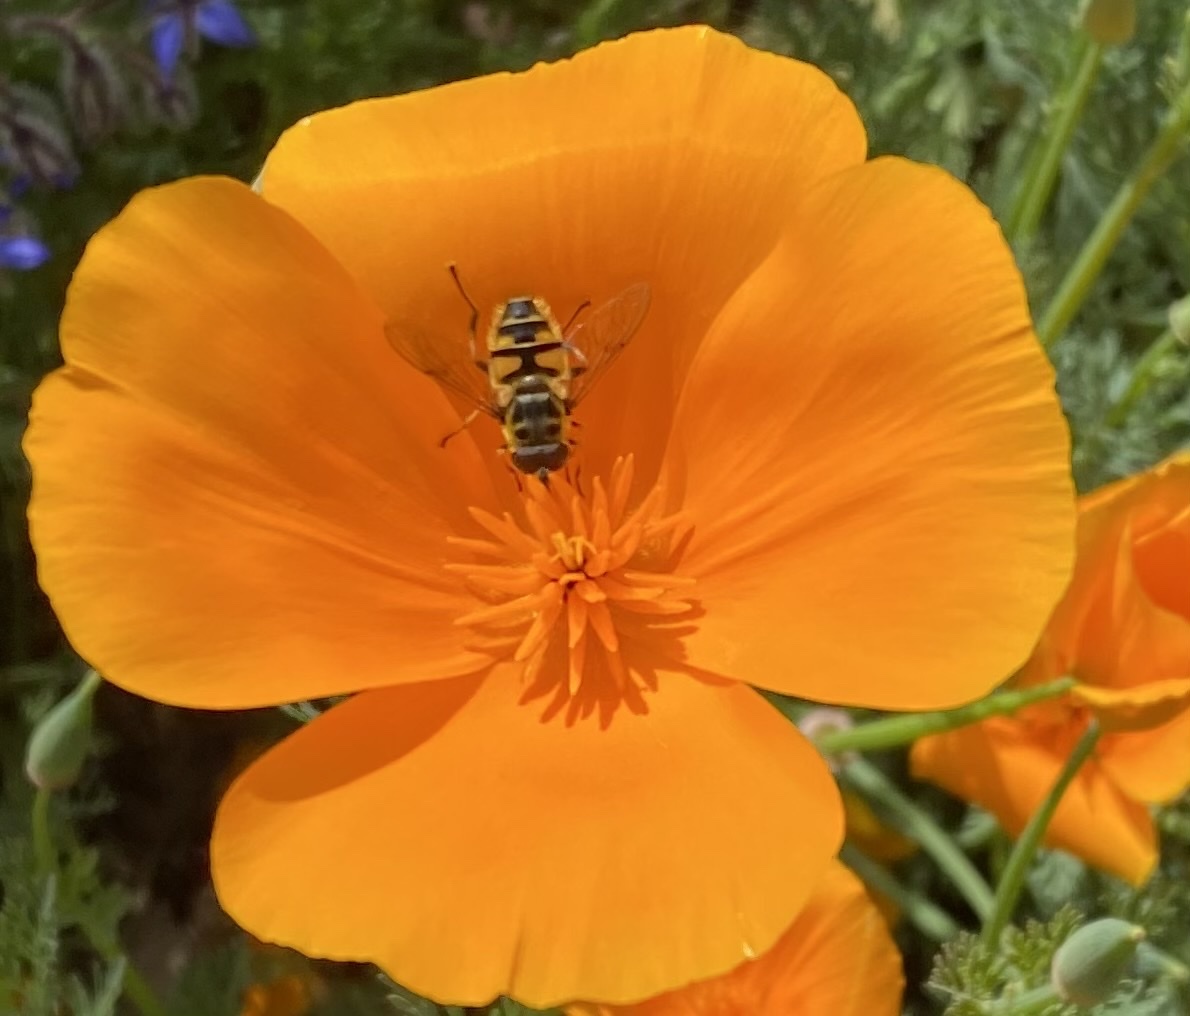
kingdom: Animalia
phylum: Arthropoda
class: Insecta
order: Diptera
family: Syrphidae
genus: Myathropa
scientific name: Myathropa florea
